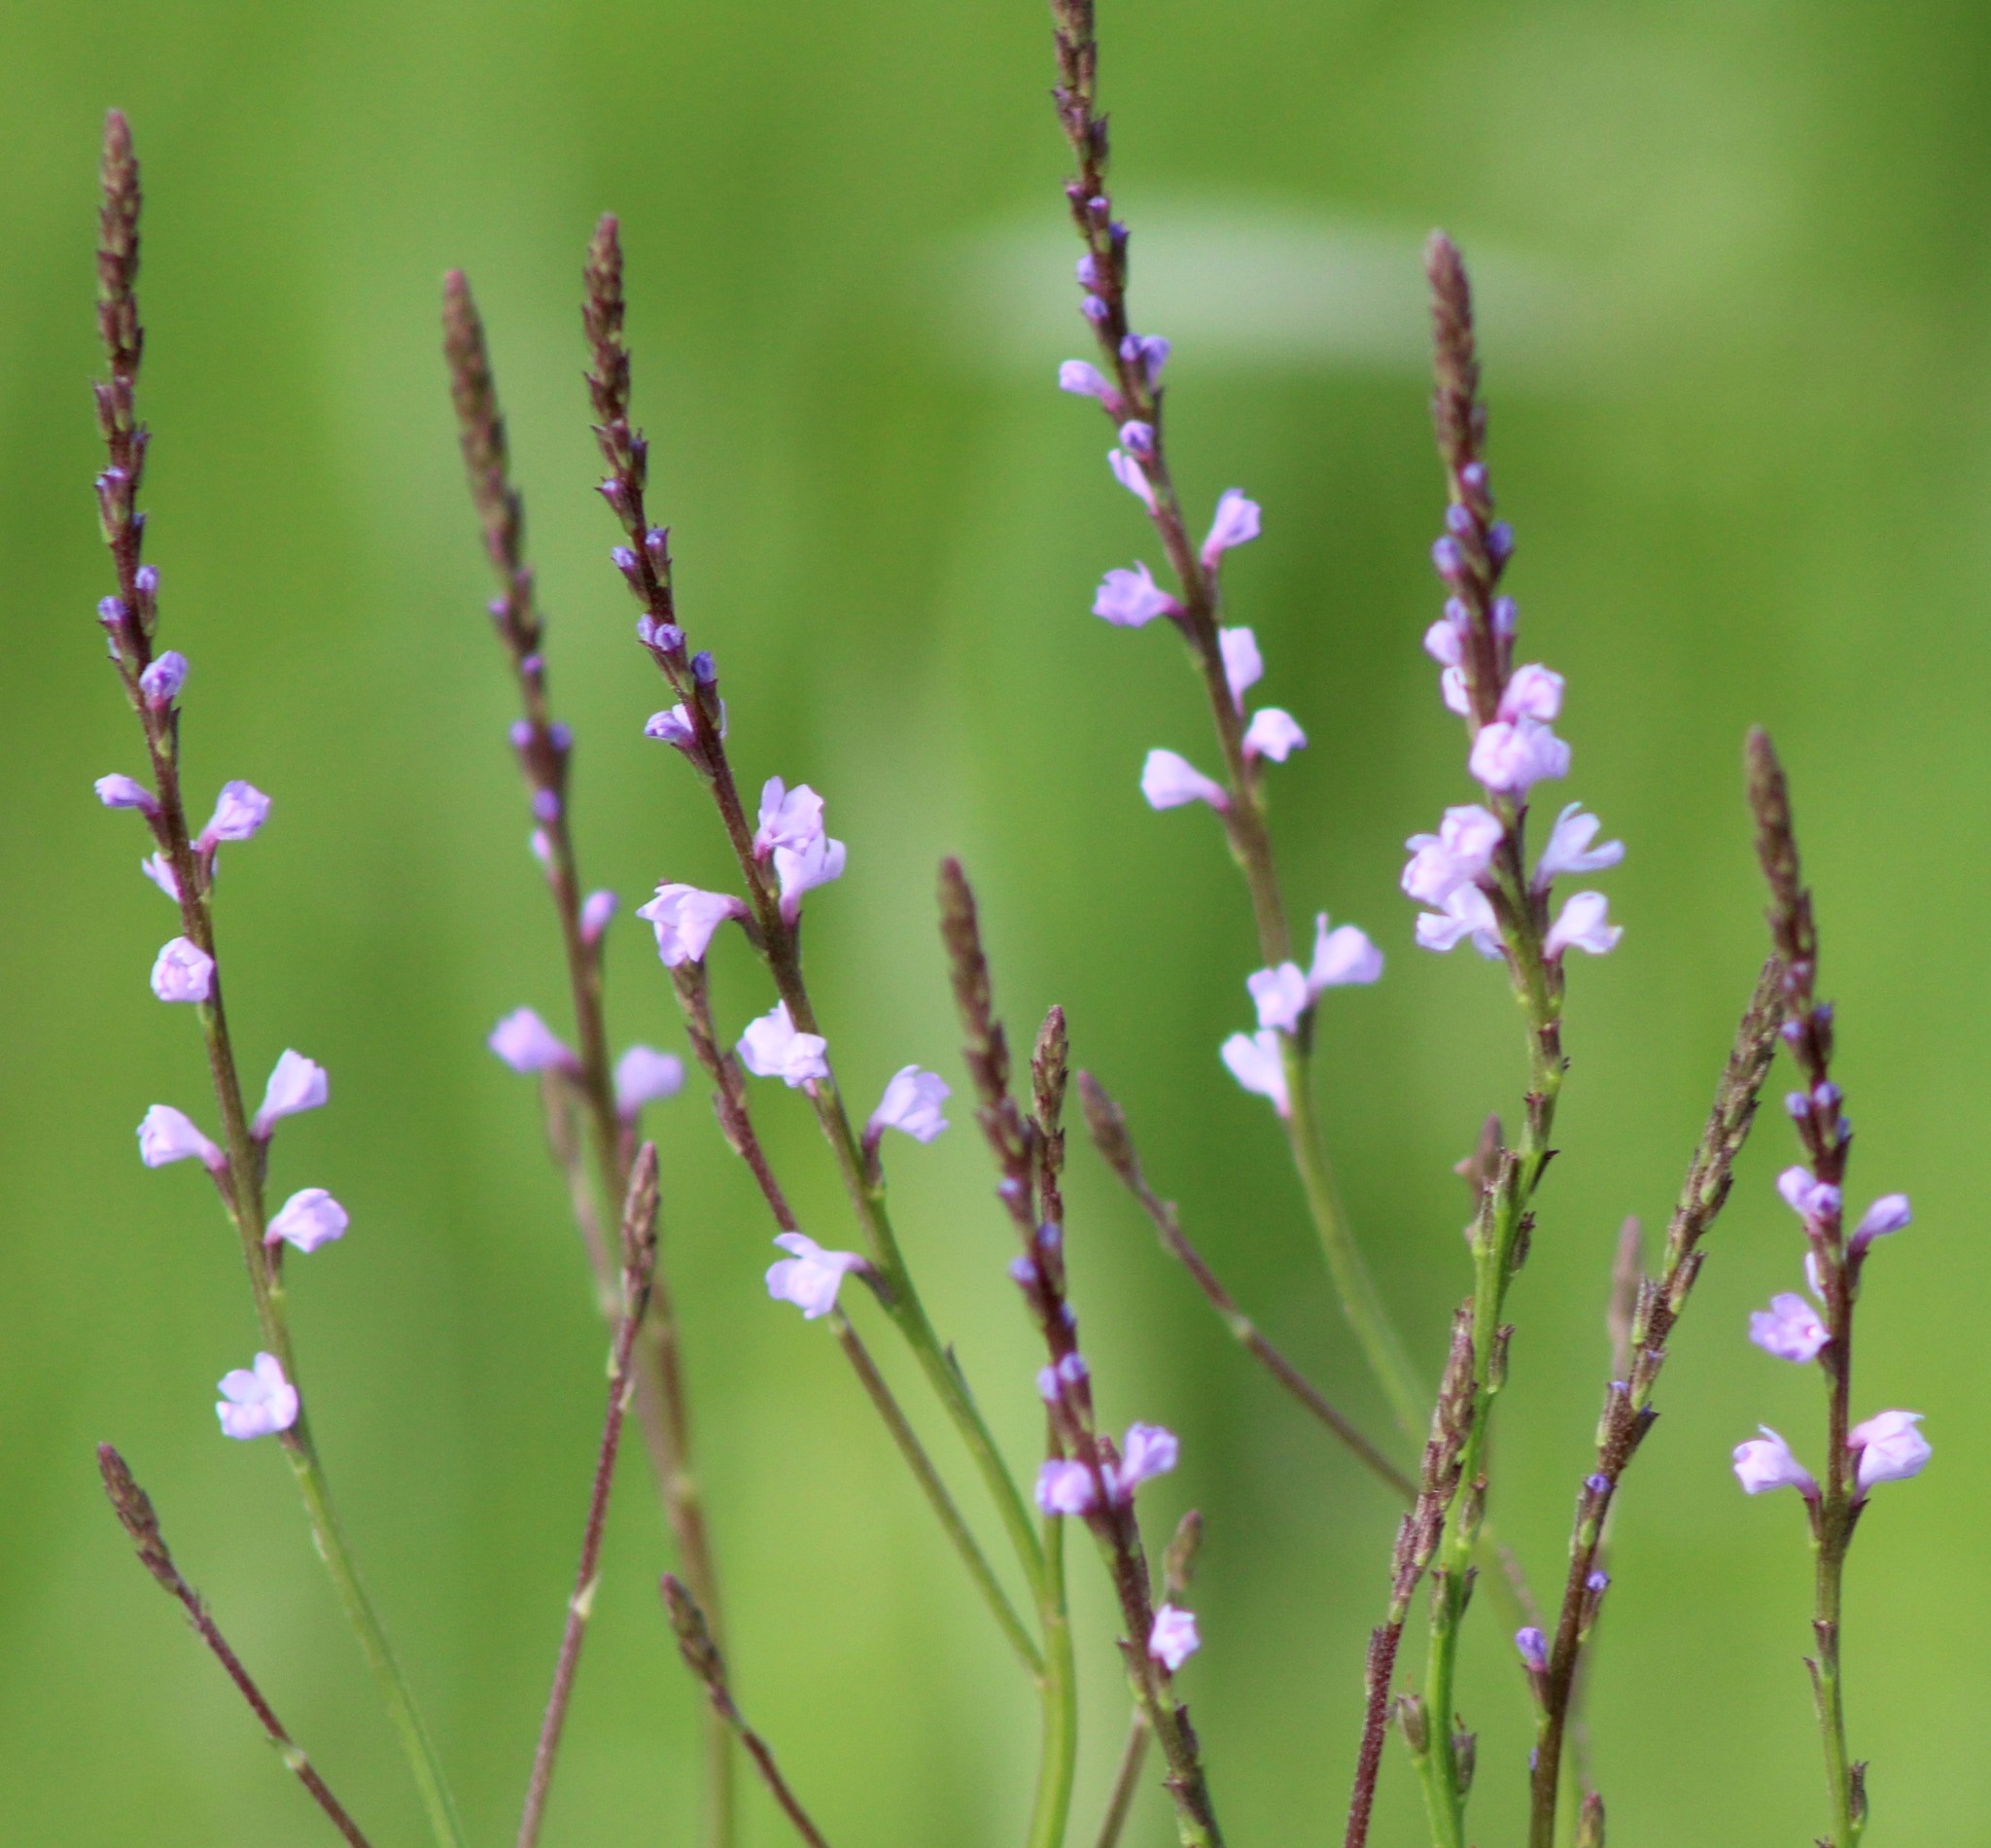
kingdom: Plantae
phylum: Tracheophyta
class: Magnoliopsida
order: Lamiales
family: Verbenaceae
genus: Verbena
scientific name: Verbena halei
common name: Texas vervain
